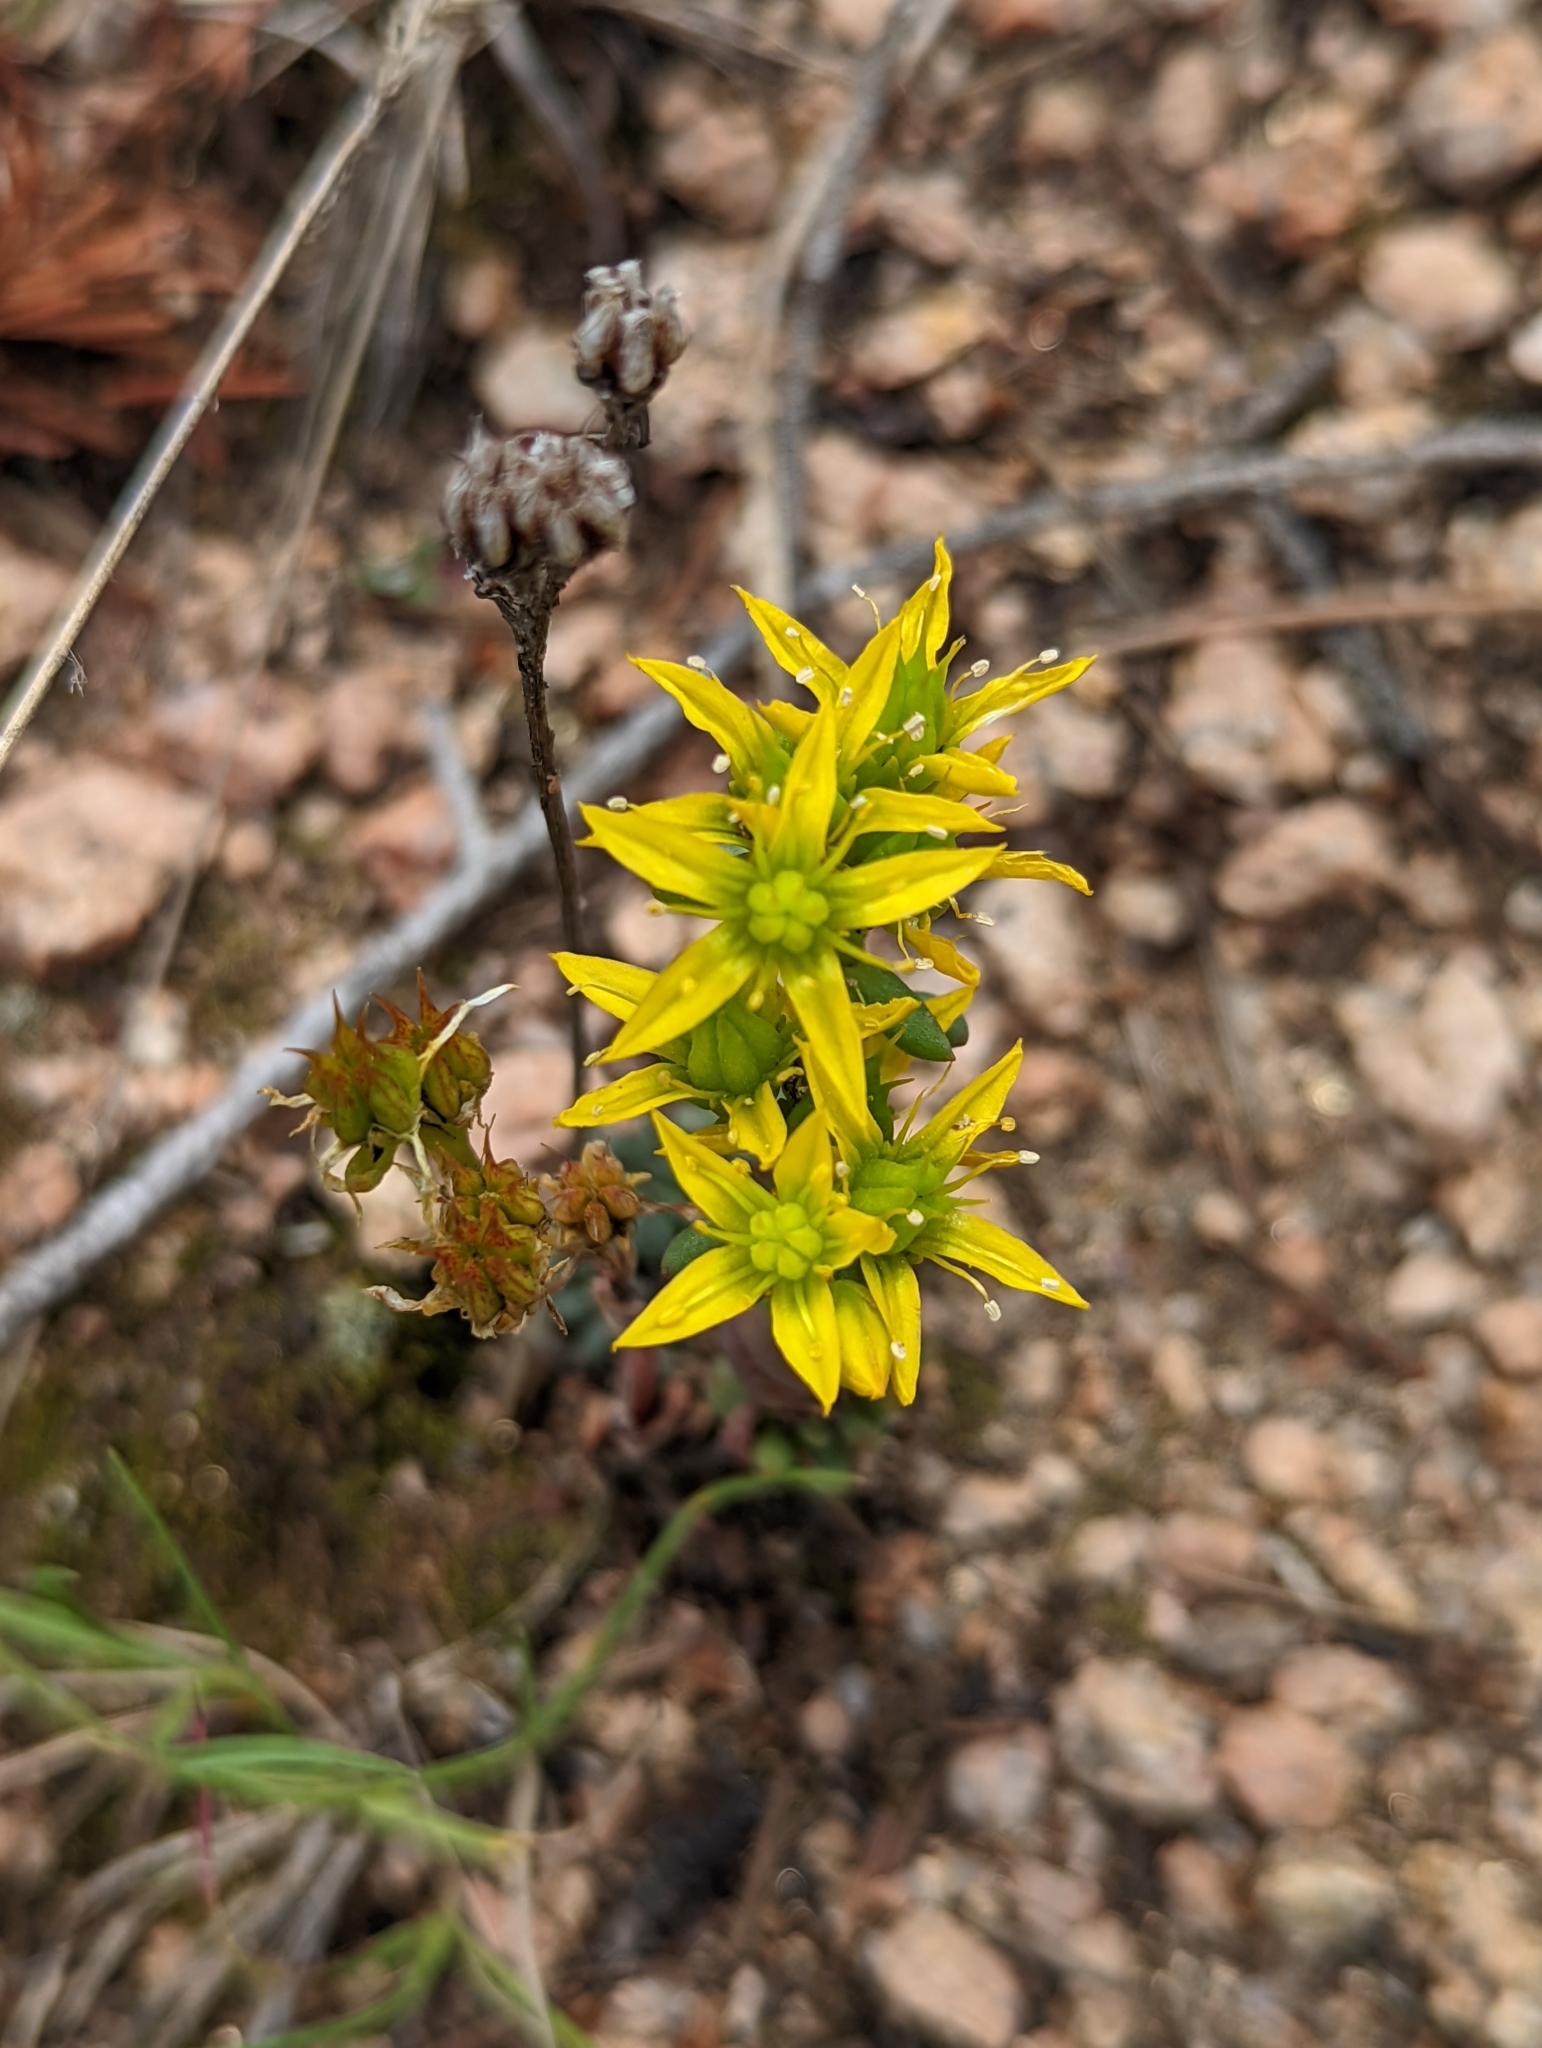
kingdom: Plantae
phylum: Tracheophyta
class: Magnoliopsida
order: Saxifragales
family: Crassulaceae
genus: Sedum
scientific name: Sedum lanceolatum
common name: Common stonecrop
